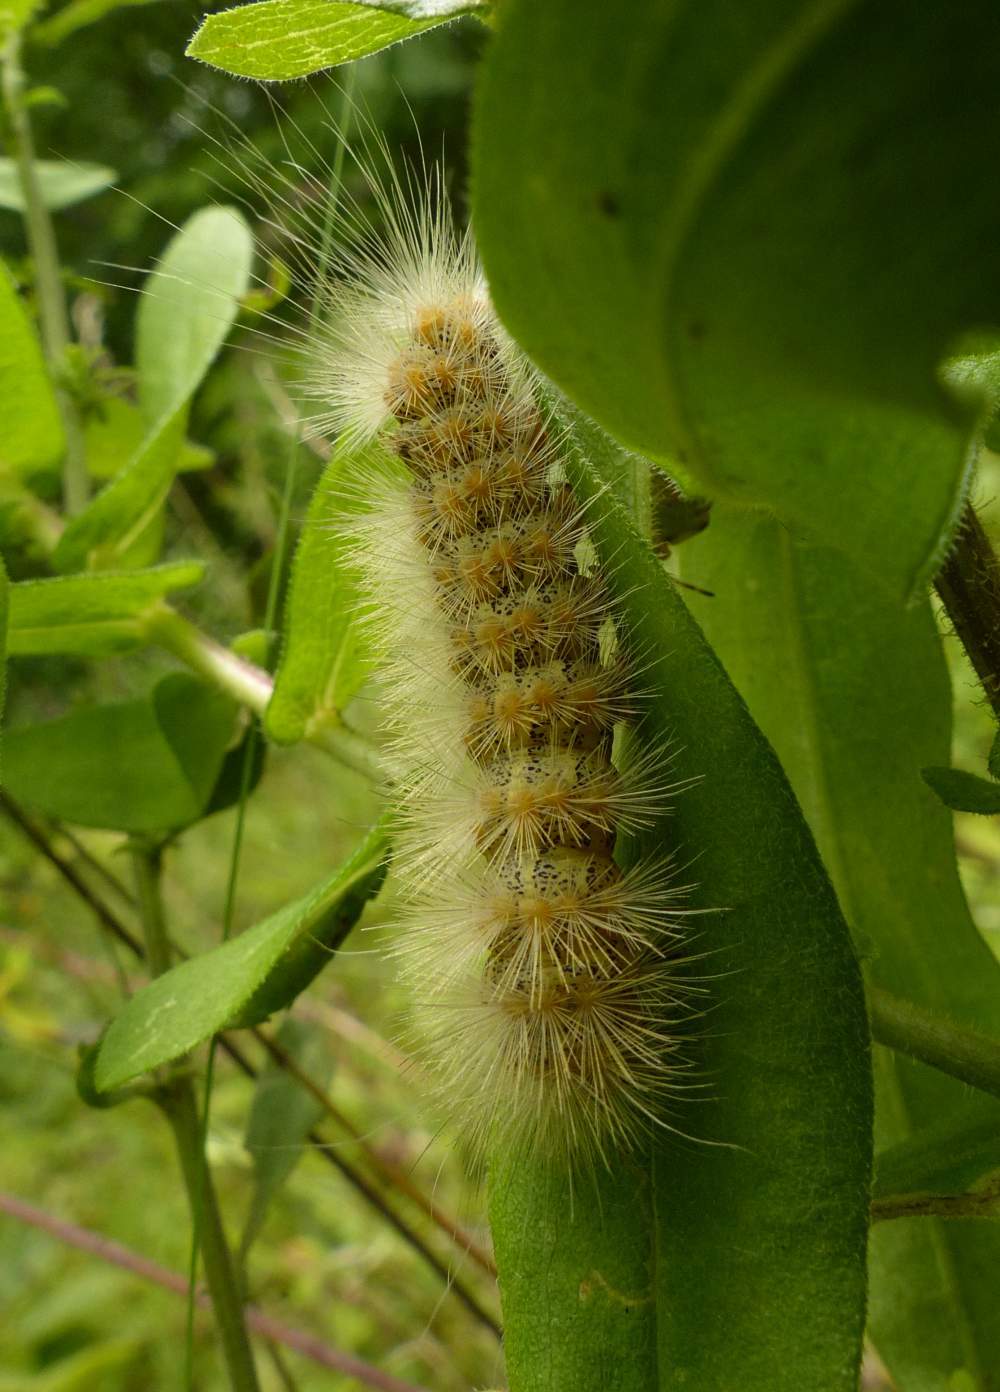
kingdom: Animalia
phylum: Arthropoda
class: Insecta
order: Lepidoptera
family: Erebidae
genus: Estigmene
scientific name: Estigmene acrea
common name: Salt marsh moth
